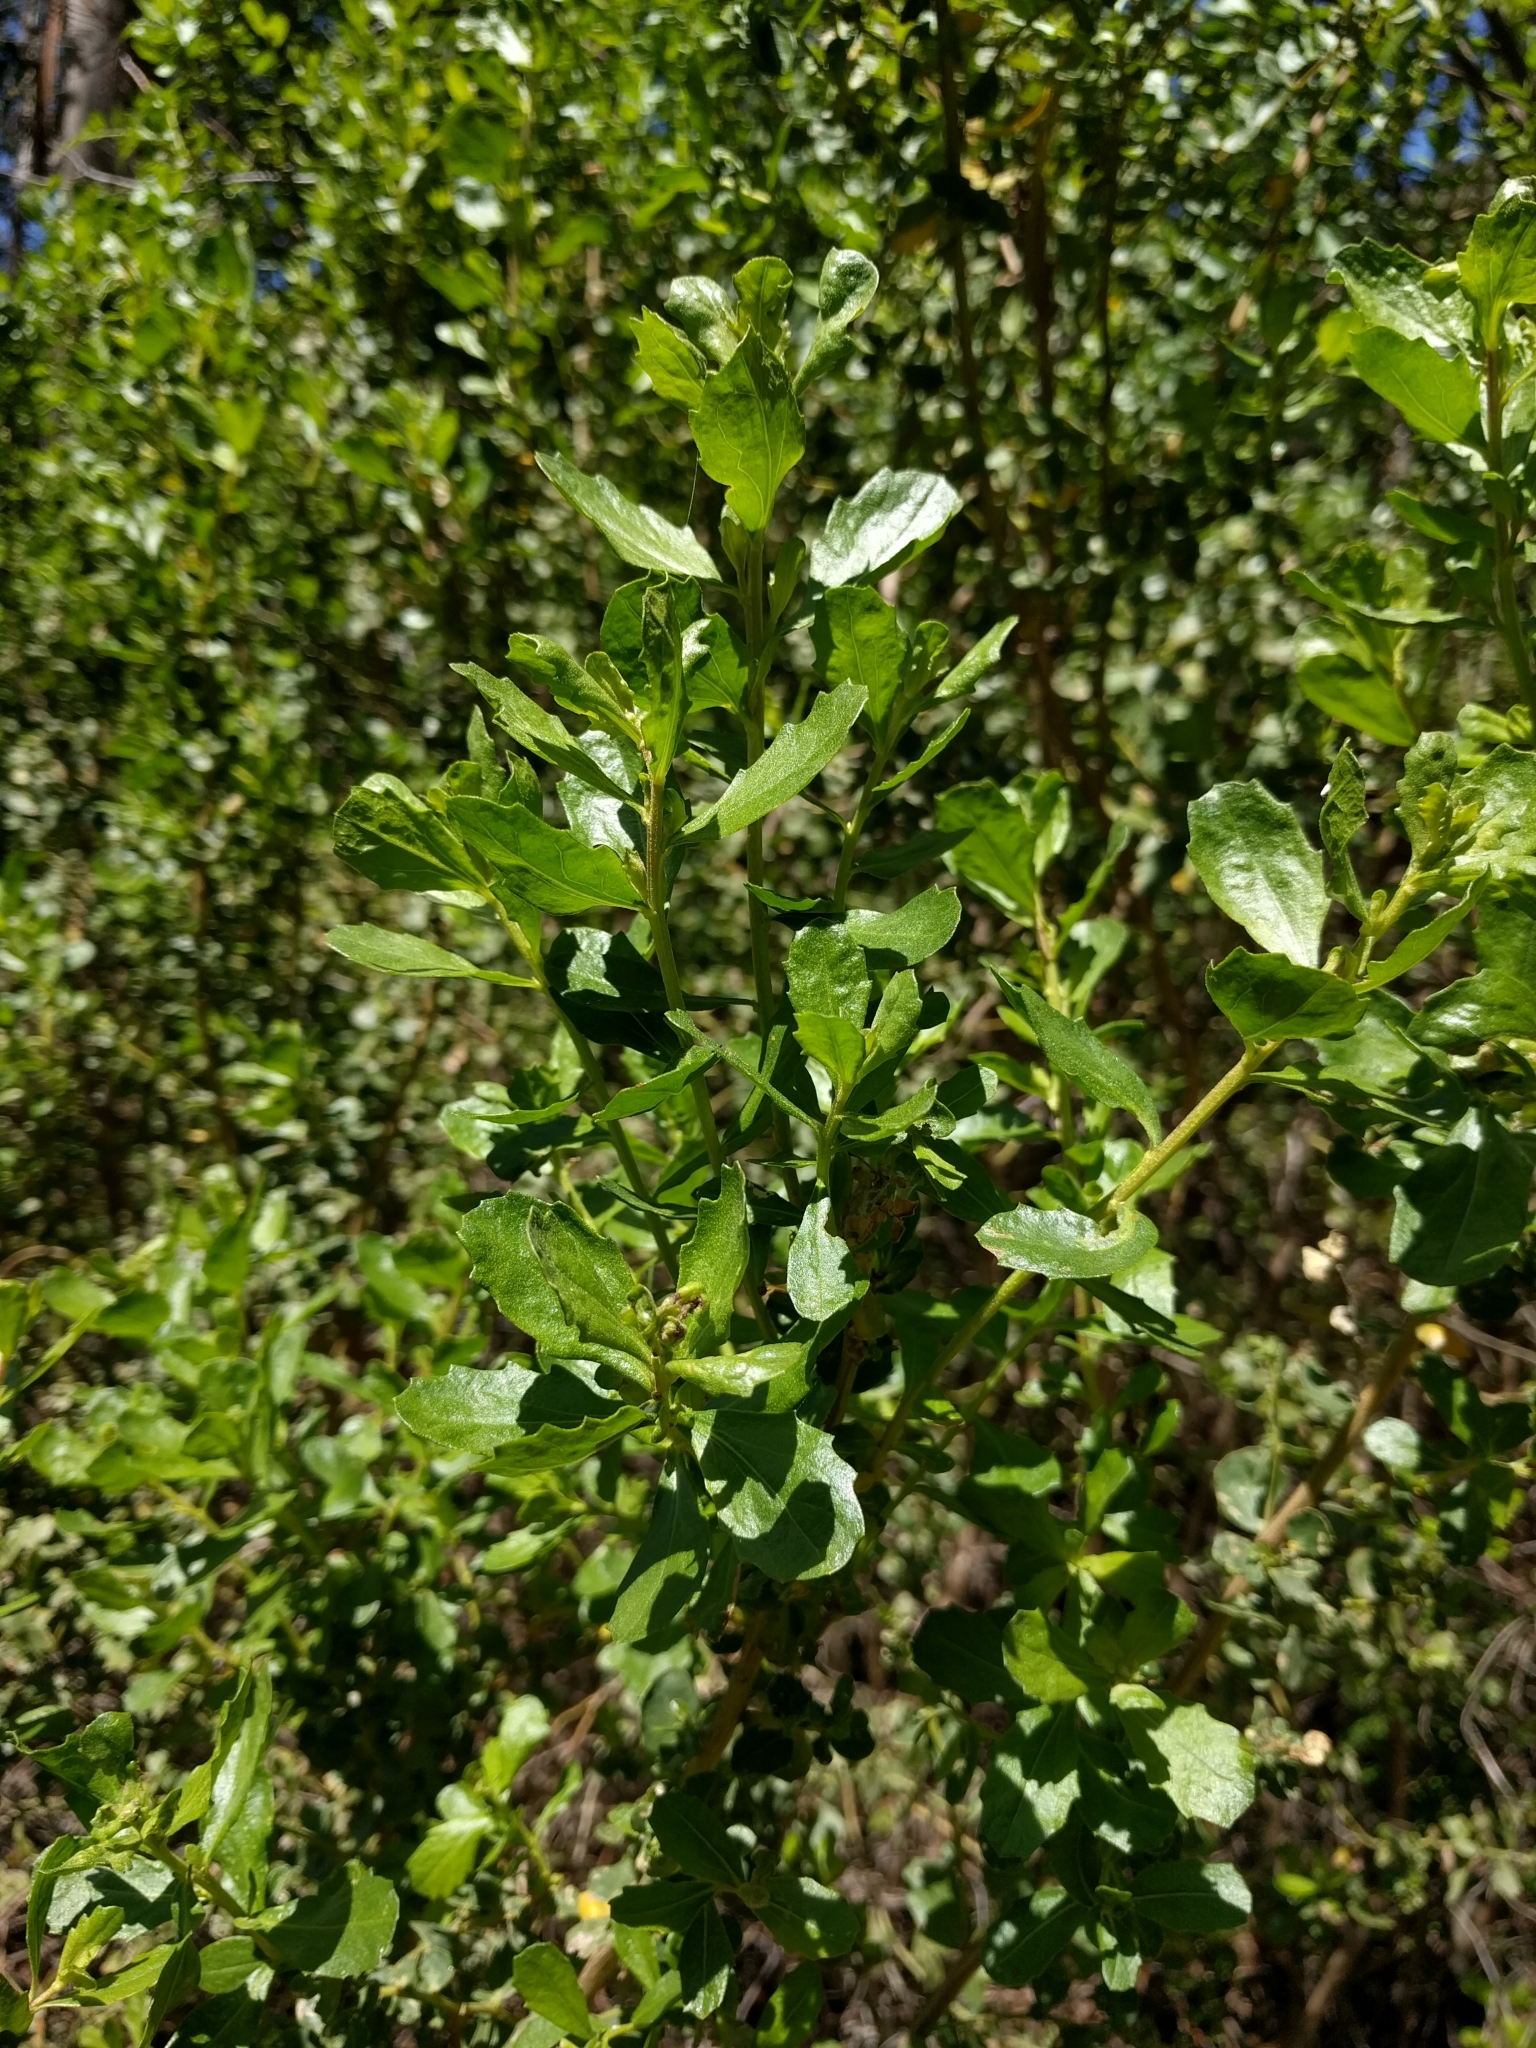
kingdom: Plantae
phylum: Tracheophyta
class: Magnoliopsida
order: Asterales
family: Asteraceae
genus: Baccharis
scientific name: Baccharis pilularis
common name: Coyotebrush
